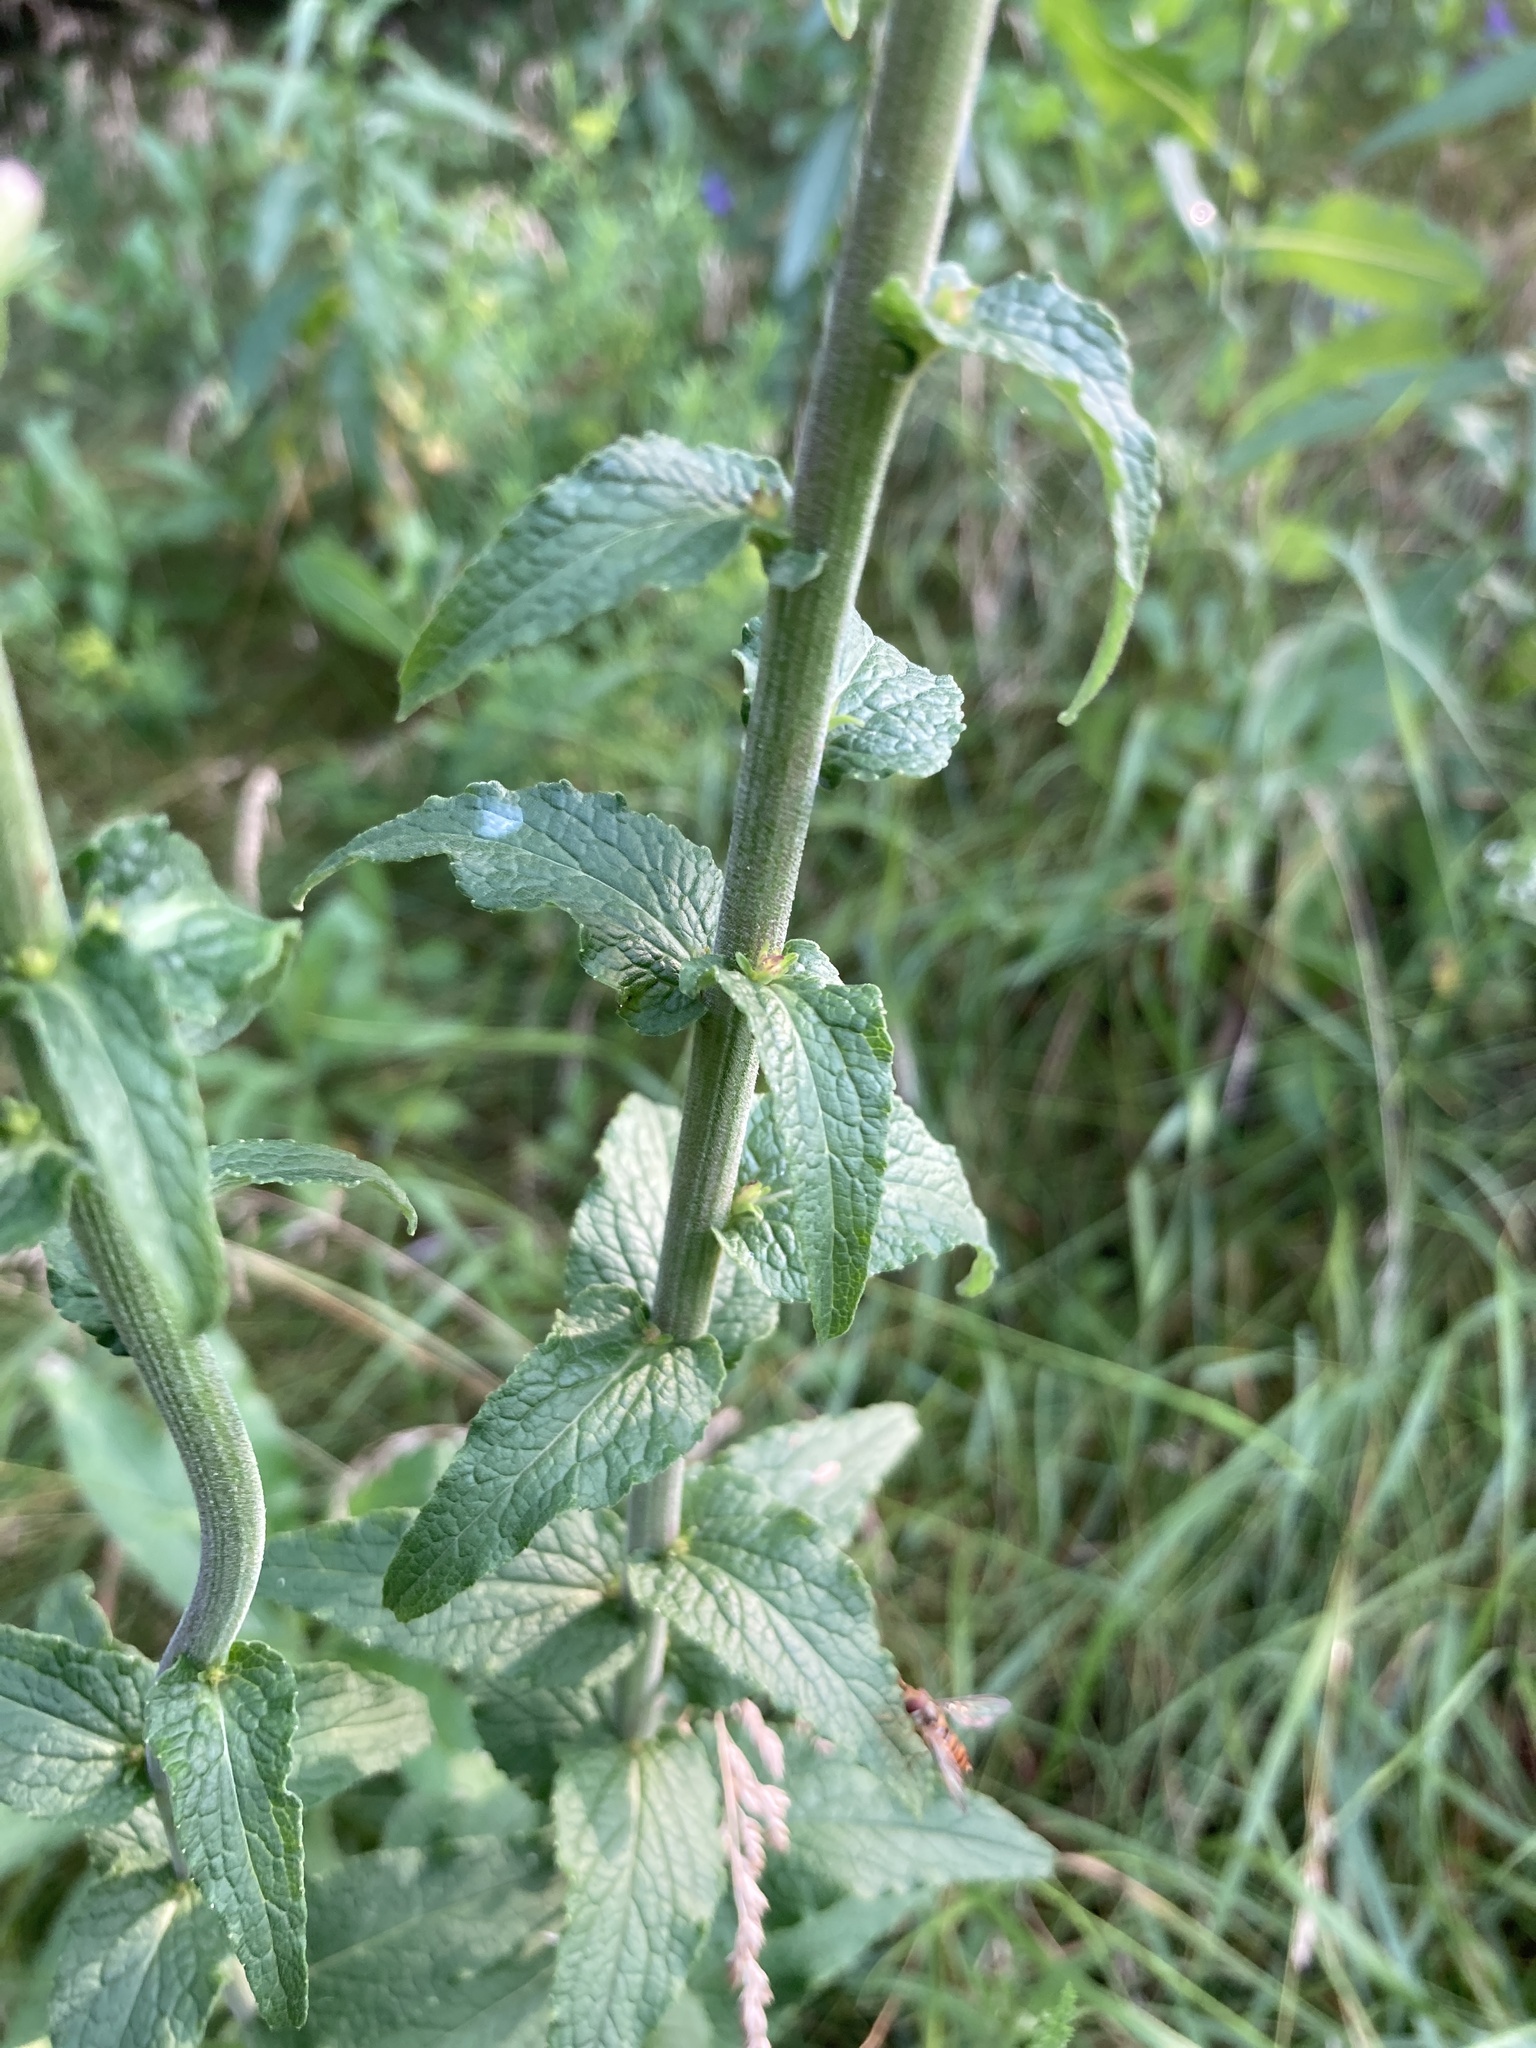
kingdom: Plantae
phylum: Tracheophyta
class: Magnoliopsida
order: Asterales
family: Campanulaceae
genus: Campanula
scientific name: Campanula bononiensis
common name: Pale bellflower
